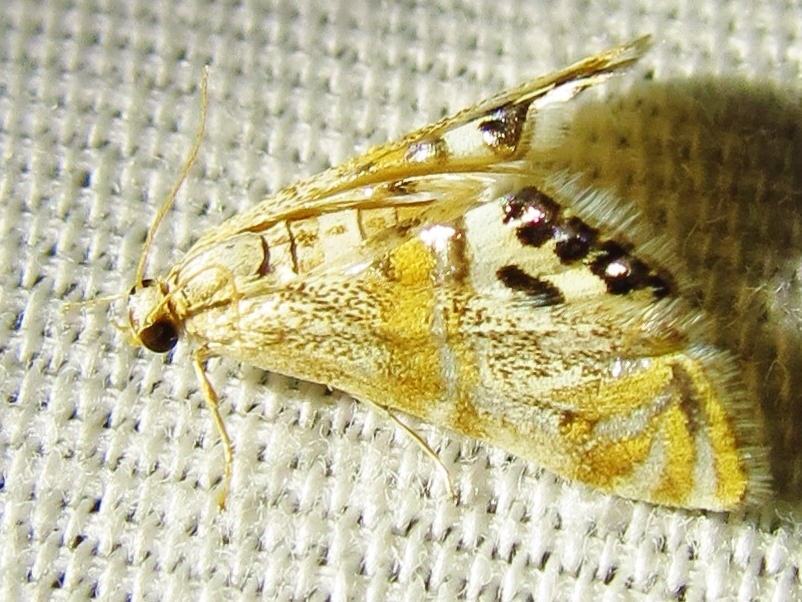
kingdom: Animalia
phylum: Arthropoda
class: Insecta
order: Lepidoptera
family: Crambidae
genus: Petrophila
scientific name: Petrophila bifascialis
